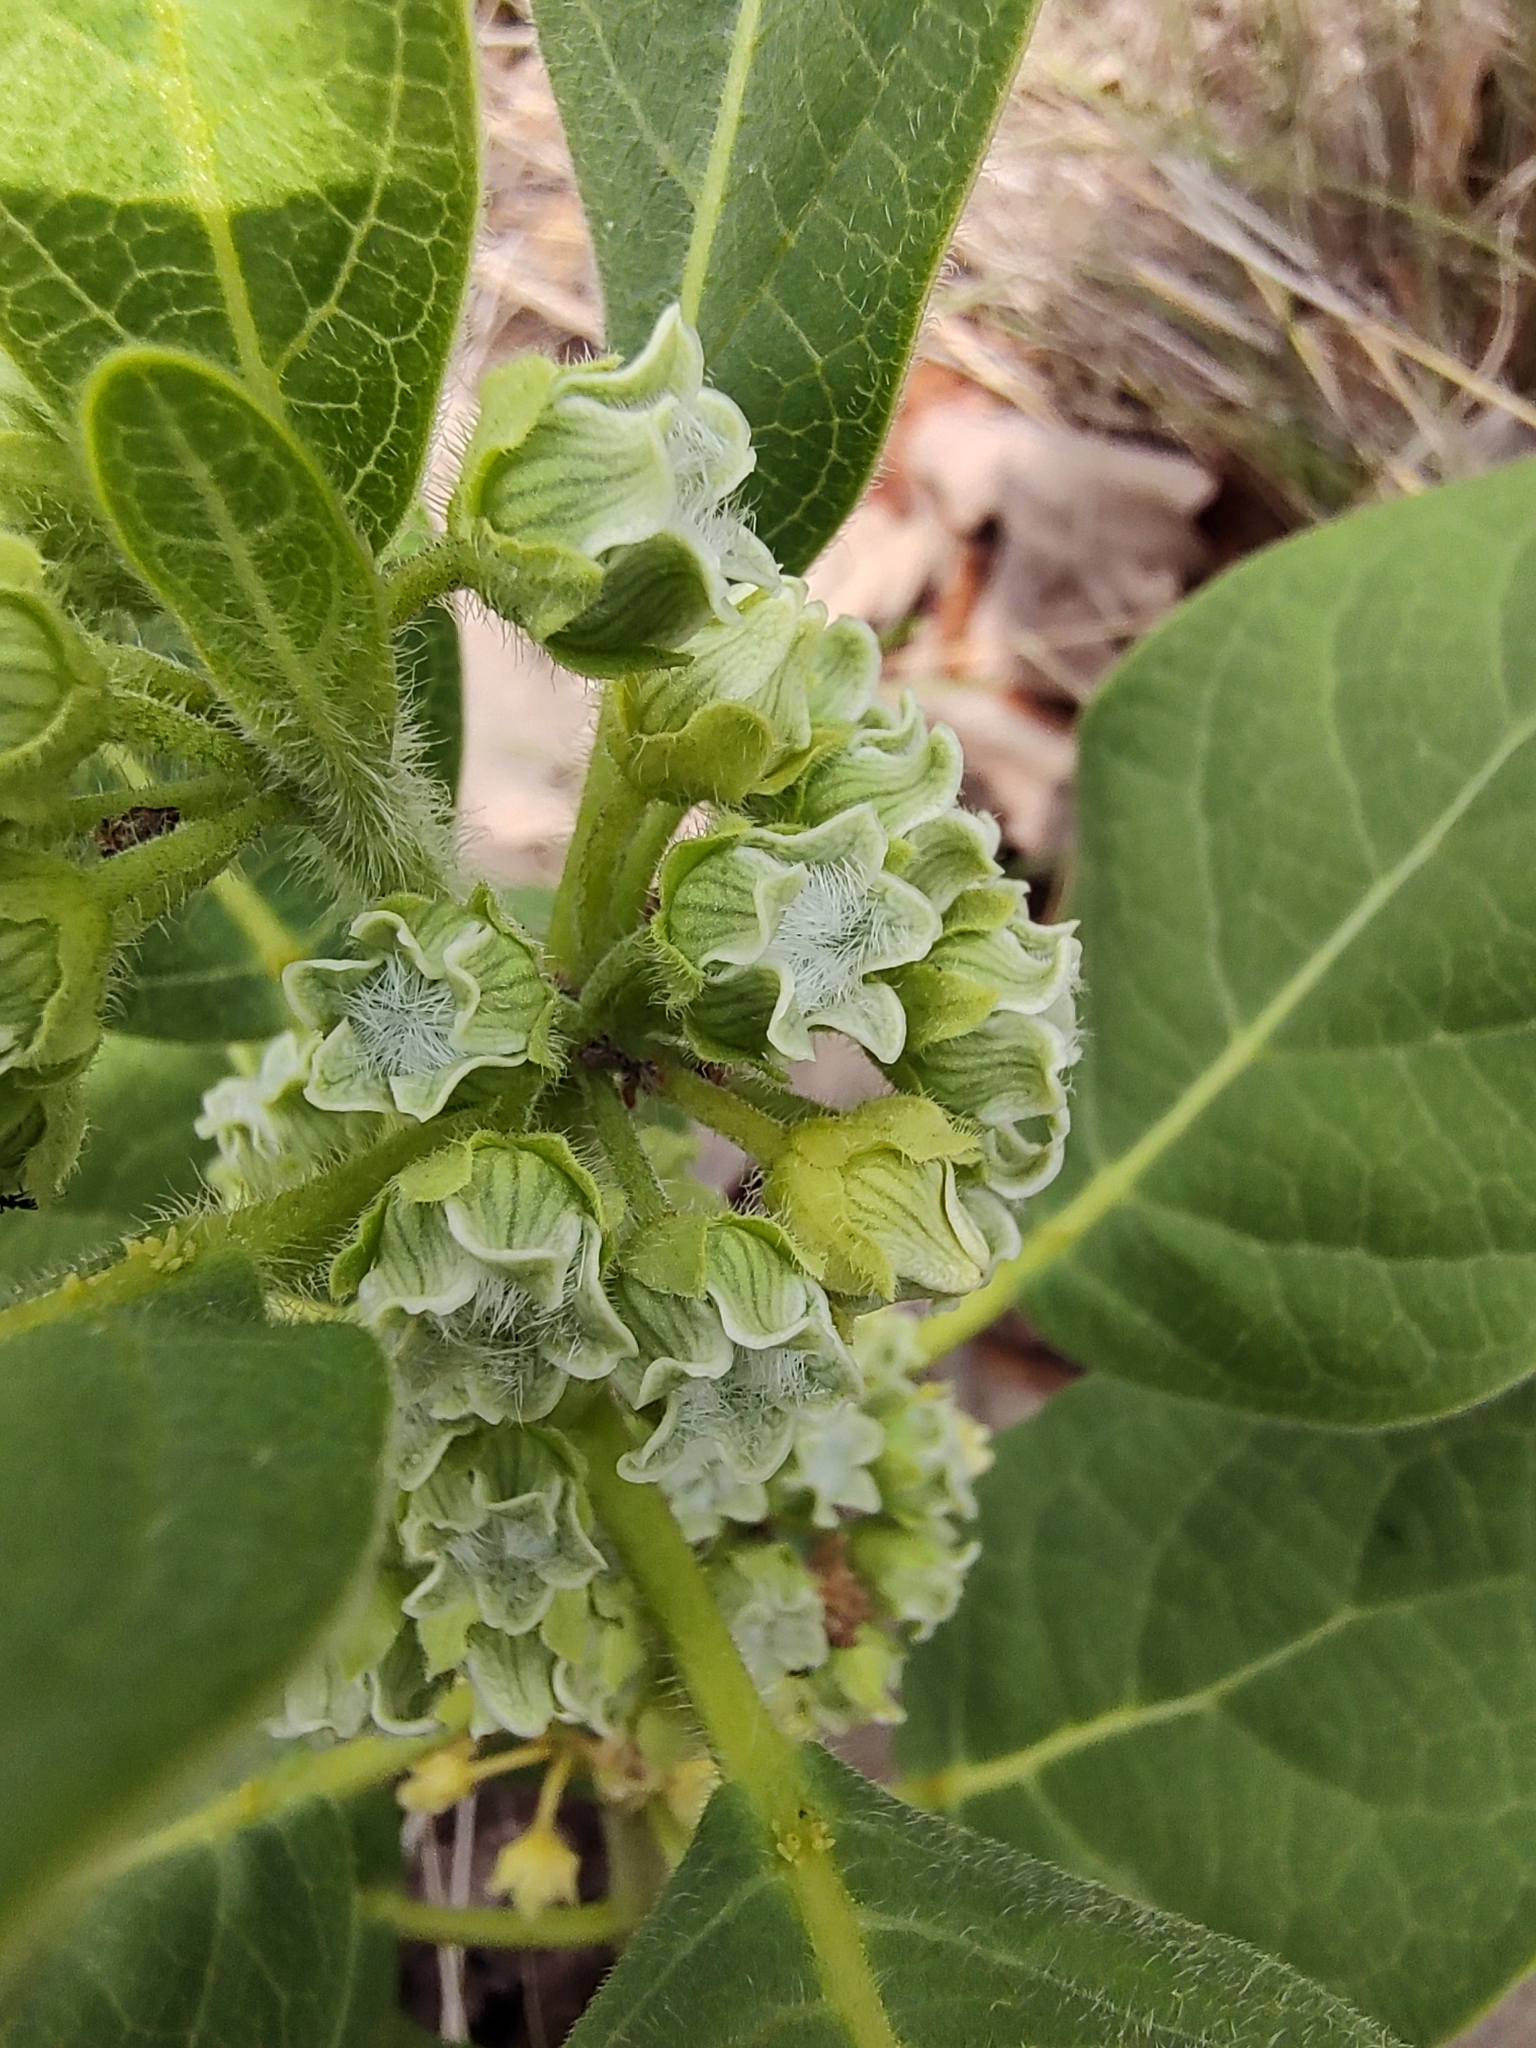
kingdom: Plantae
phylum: Tracheophyta
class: Magnoliopsida
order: Gentianales
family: Apocynaceae
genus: Pherotrichis
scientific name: Pherotrichis villosa
